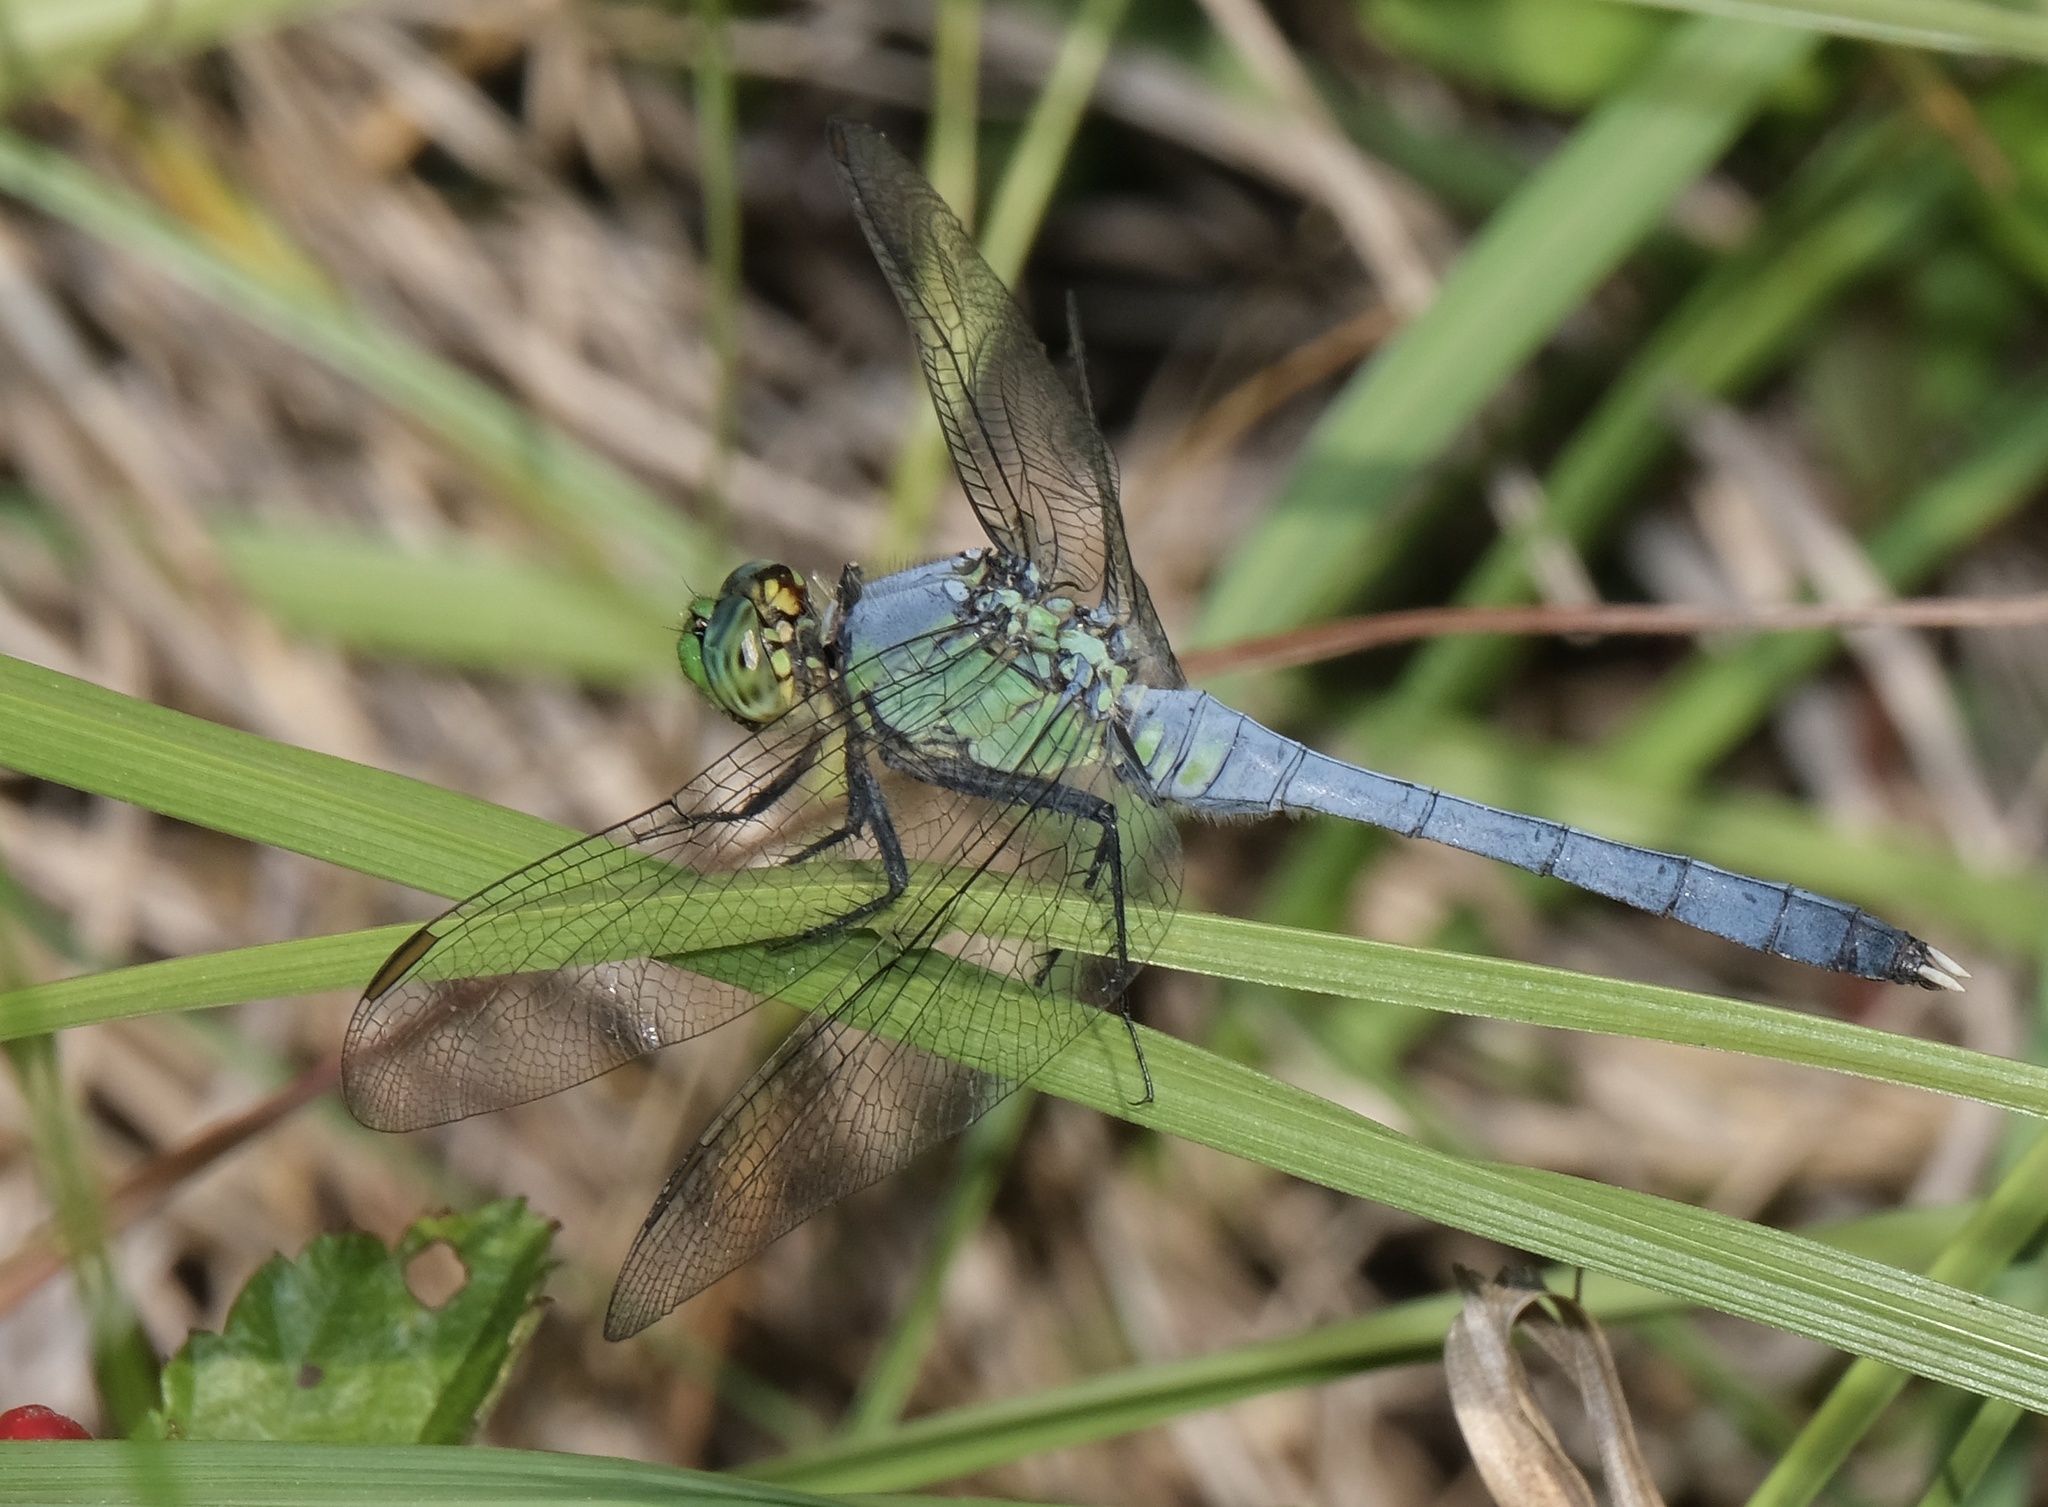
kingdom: Animalia
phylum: Arthropoda
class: Insecta
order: Odonata
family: Libellulidae
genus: Erythemis
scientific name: Erythemis simplicicollis
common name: Eastern pondhawk
